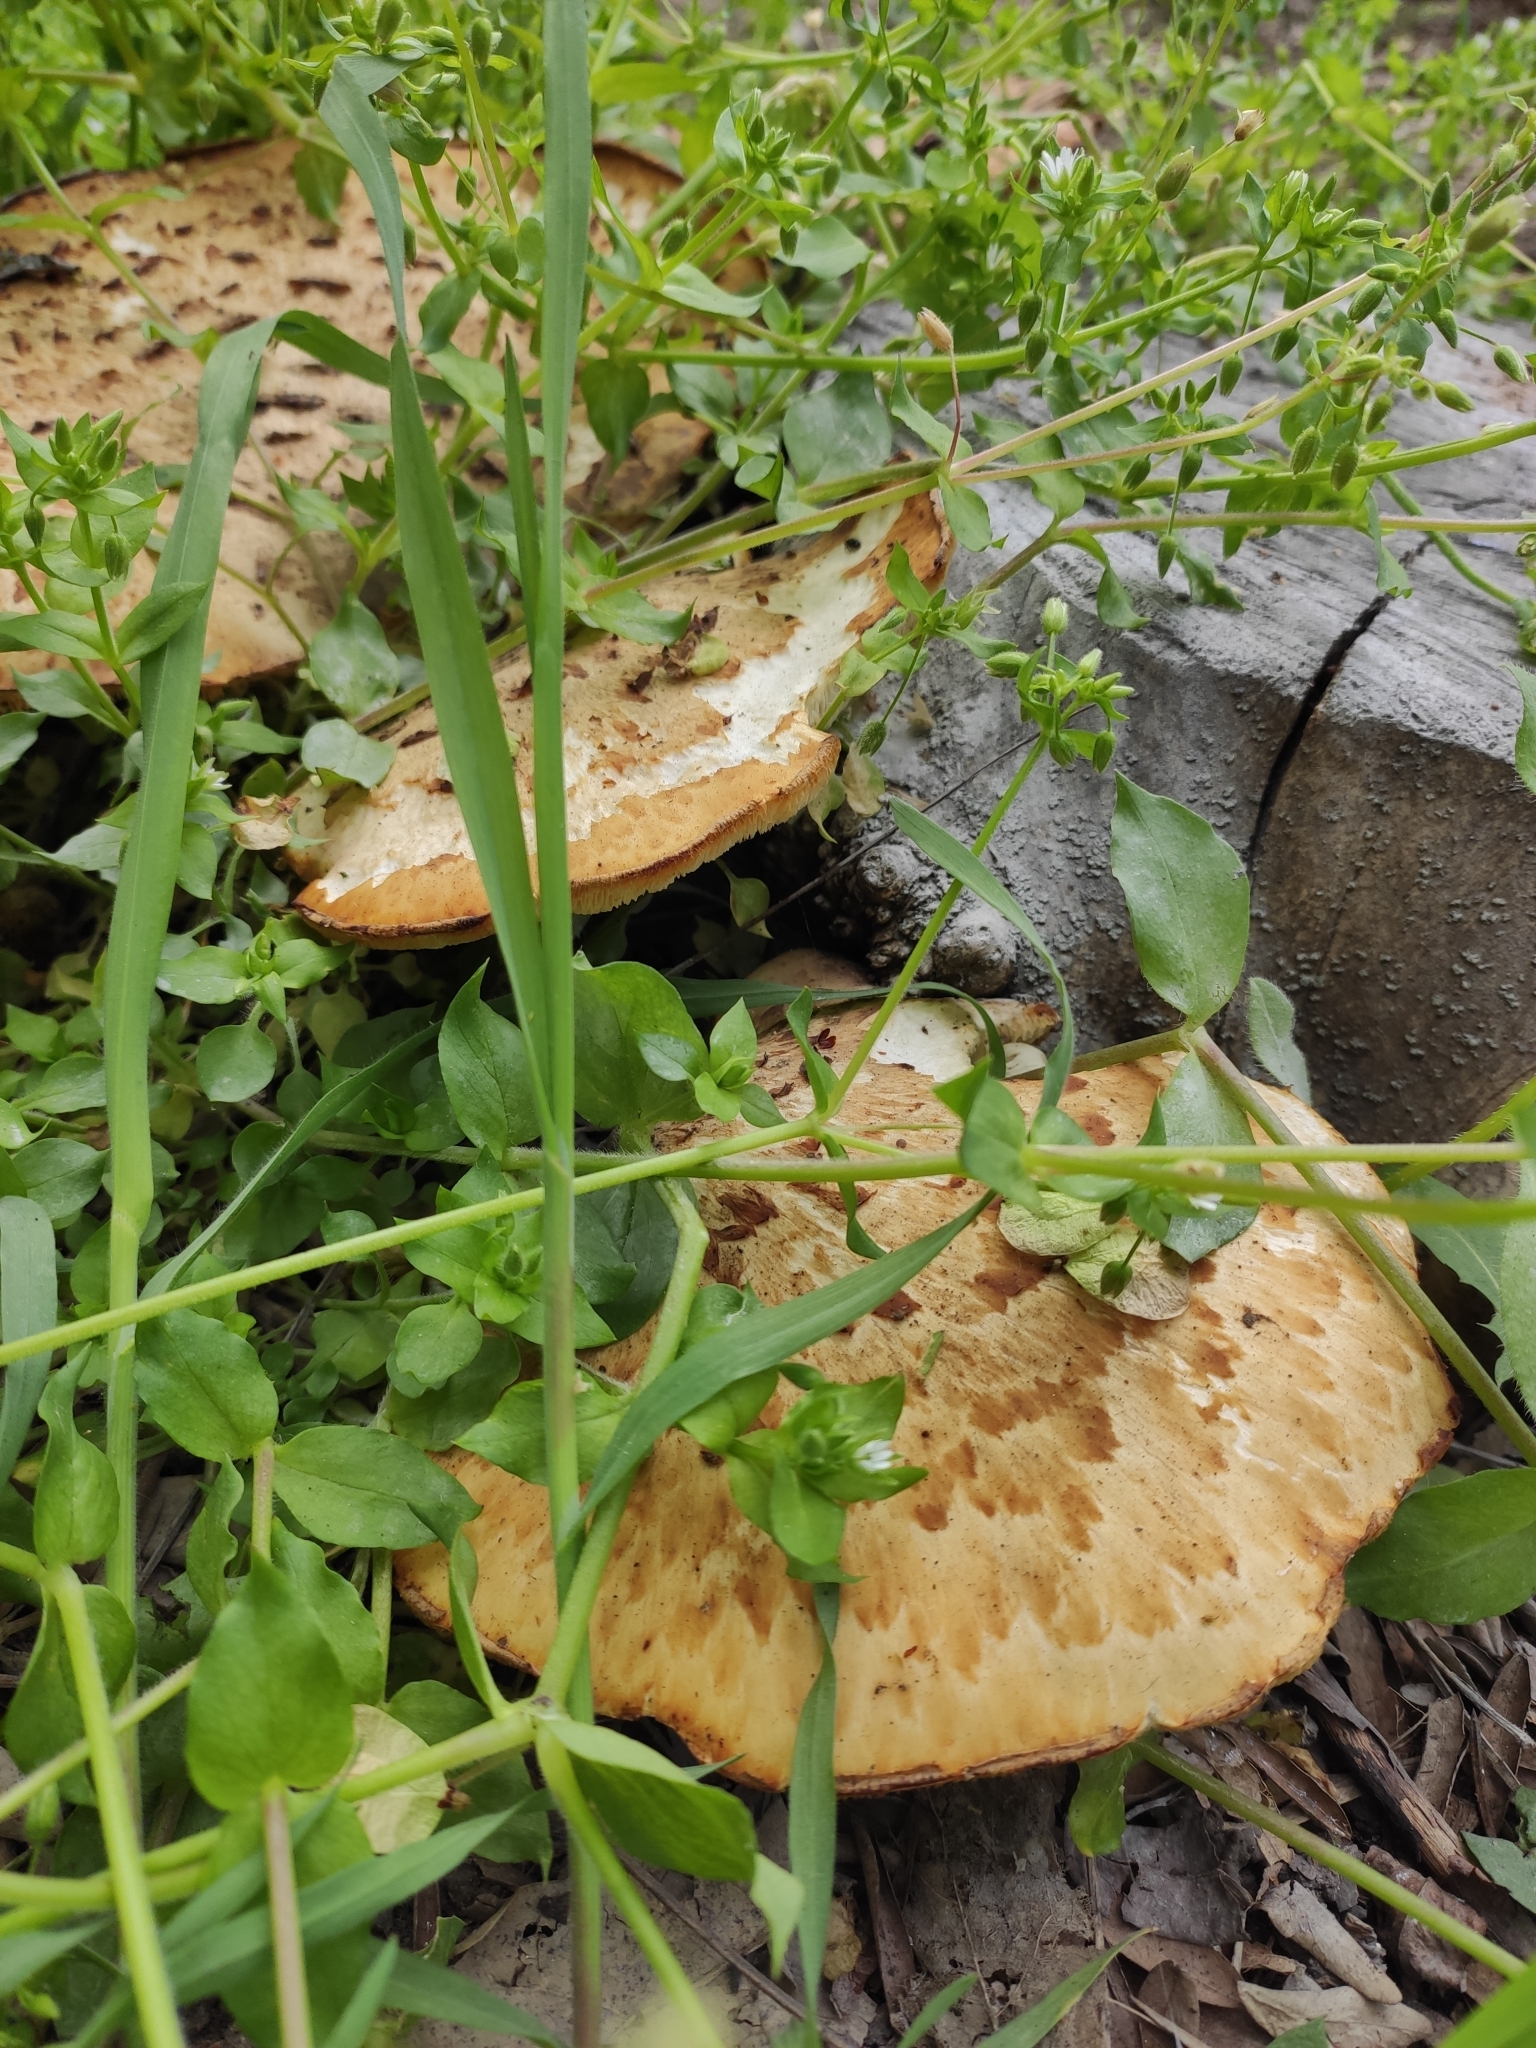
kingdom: Fungi
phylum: Basidiomycota
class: Agaricomycetes
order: Polyporales
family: Polyporaceae
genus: Cerioporus
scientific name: Cerioporus squamosus
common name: Dryad's saddle
